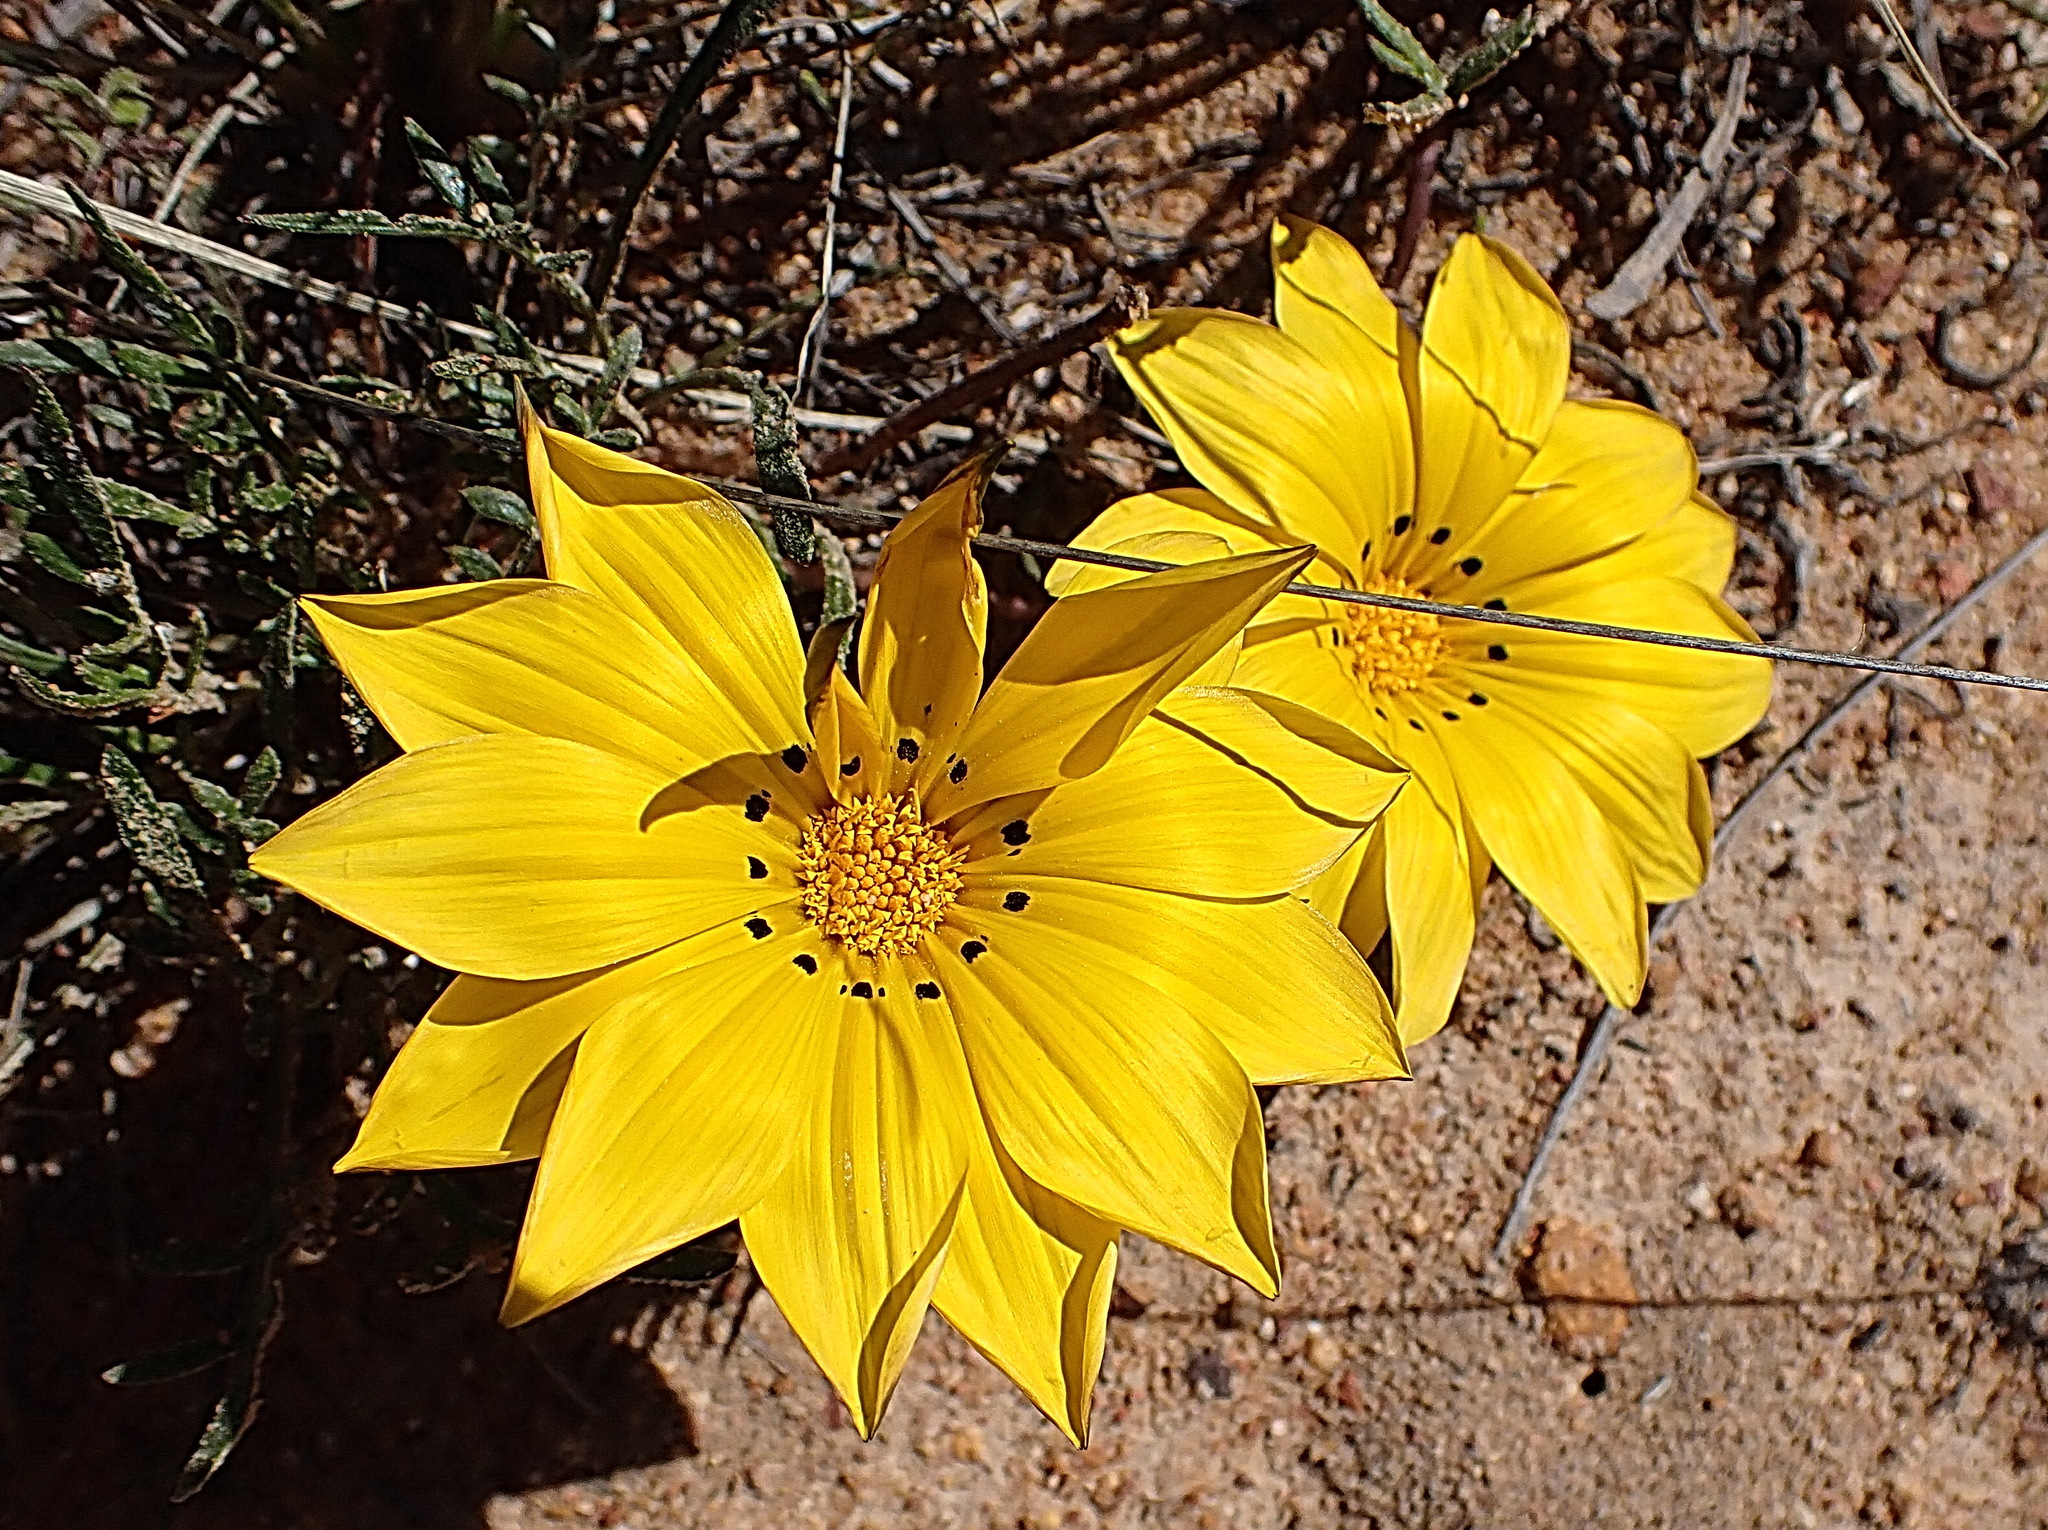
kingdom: Plantae
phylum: Tracheophyta
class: Magnoliopsida
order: Asterales
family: Asteraceae
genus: Gazania
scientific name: Gazania krebsiana
